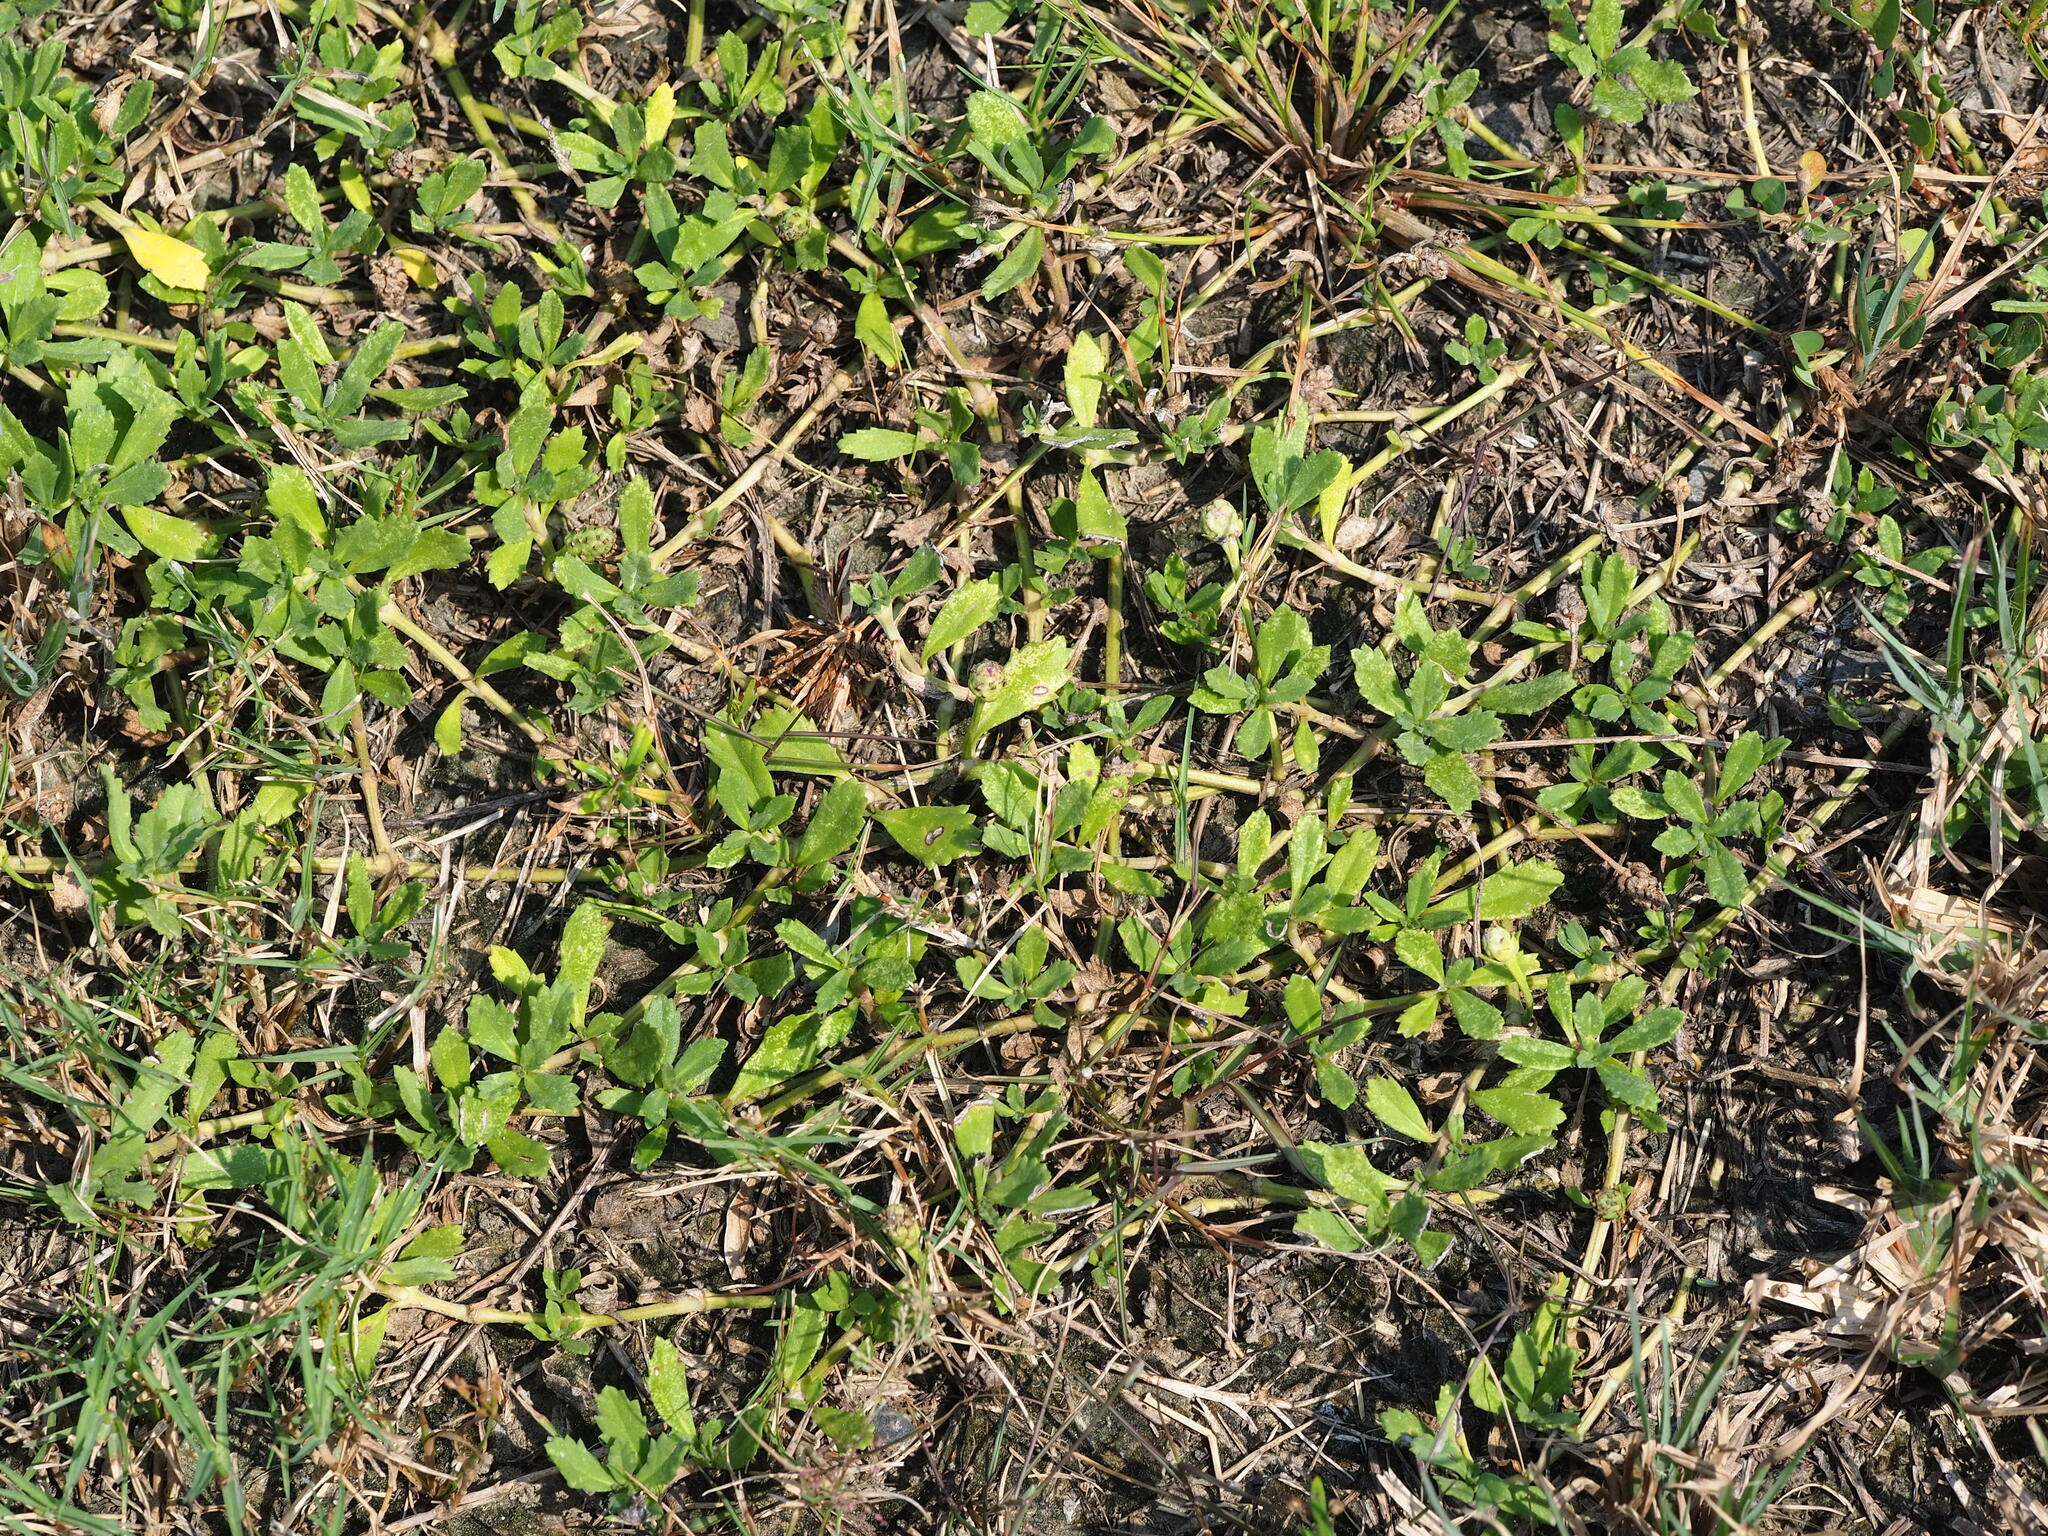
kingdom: Plantae
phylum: Tracheophyta
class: Magnoliopsida
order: Lamiales
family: Verbenaceae
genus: Phyla
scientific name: Phyla nodiflora
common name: Frogfruit
